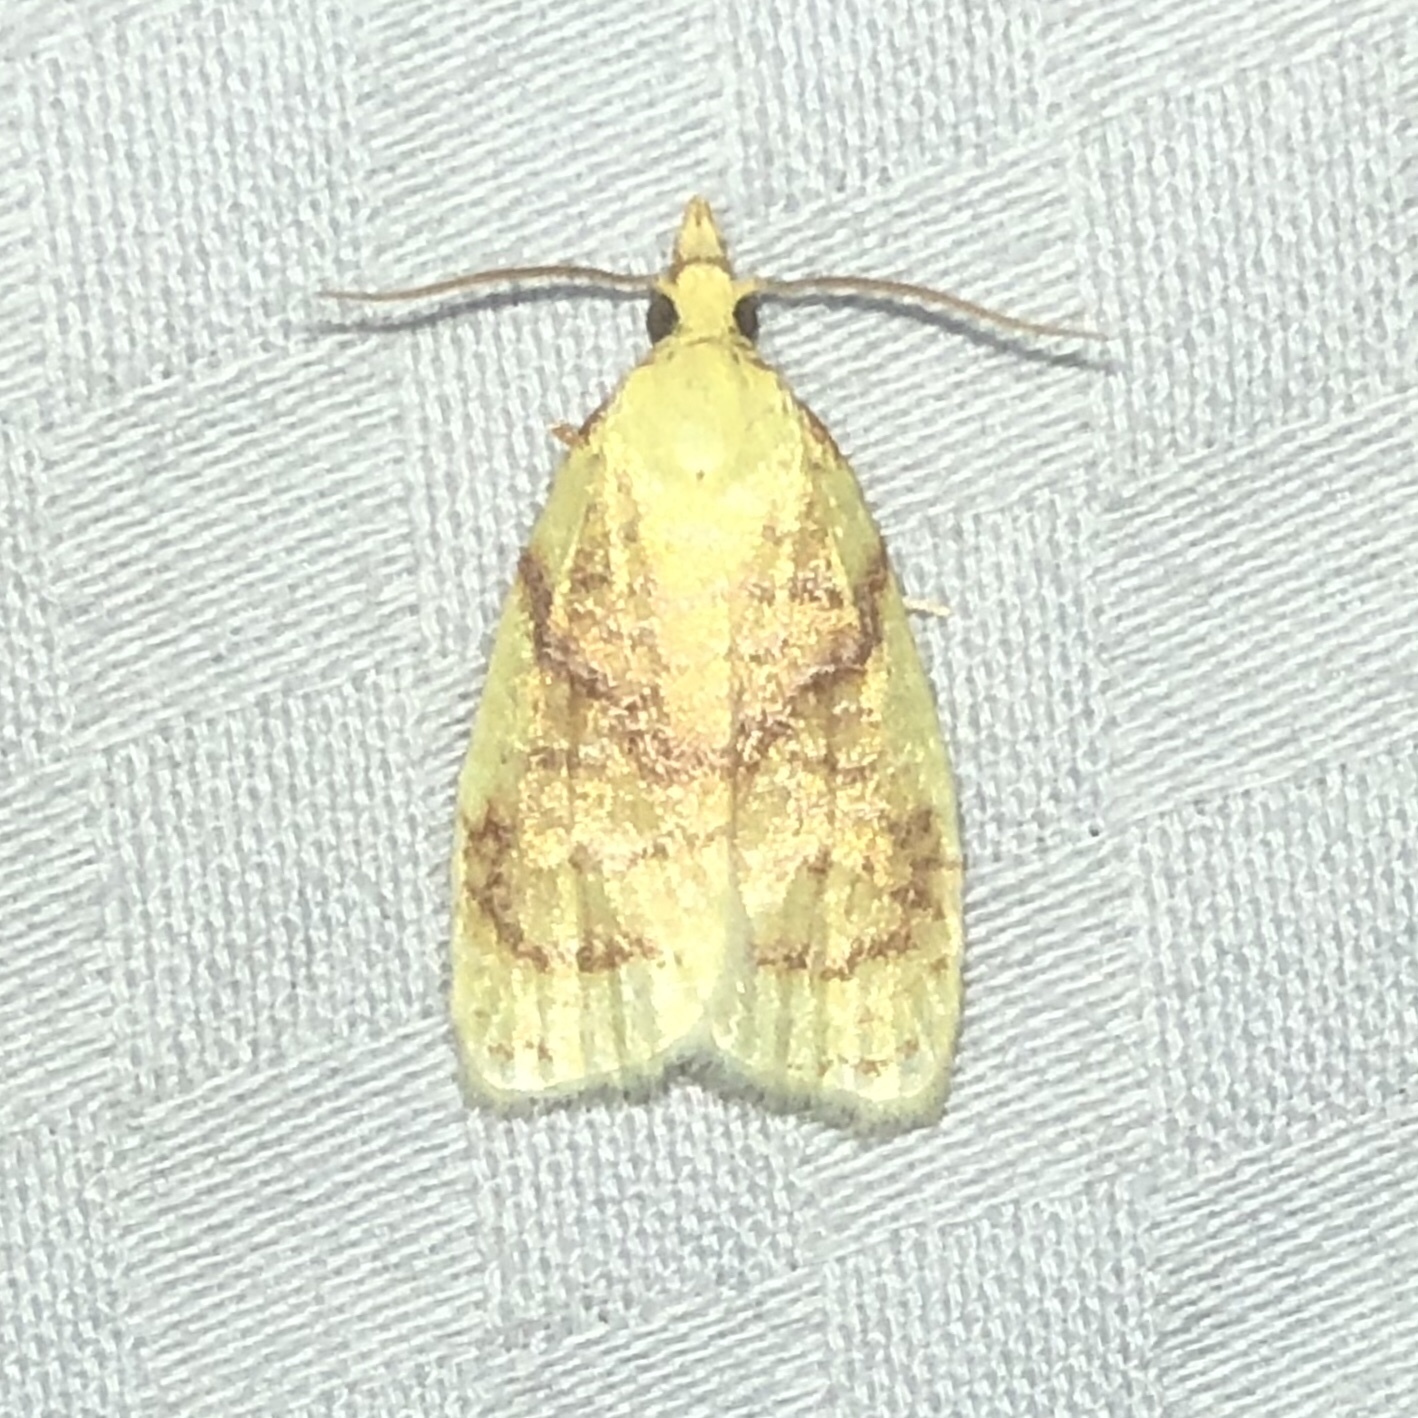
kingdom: Animalia
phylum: Arthropoda
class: Insecta
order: Lepidoptera
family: Tortricidae
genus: Cenopis
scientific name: Cenopis pettitana
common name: Maple-basswood leafroller moth
